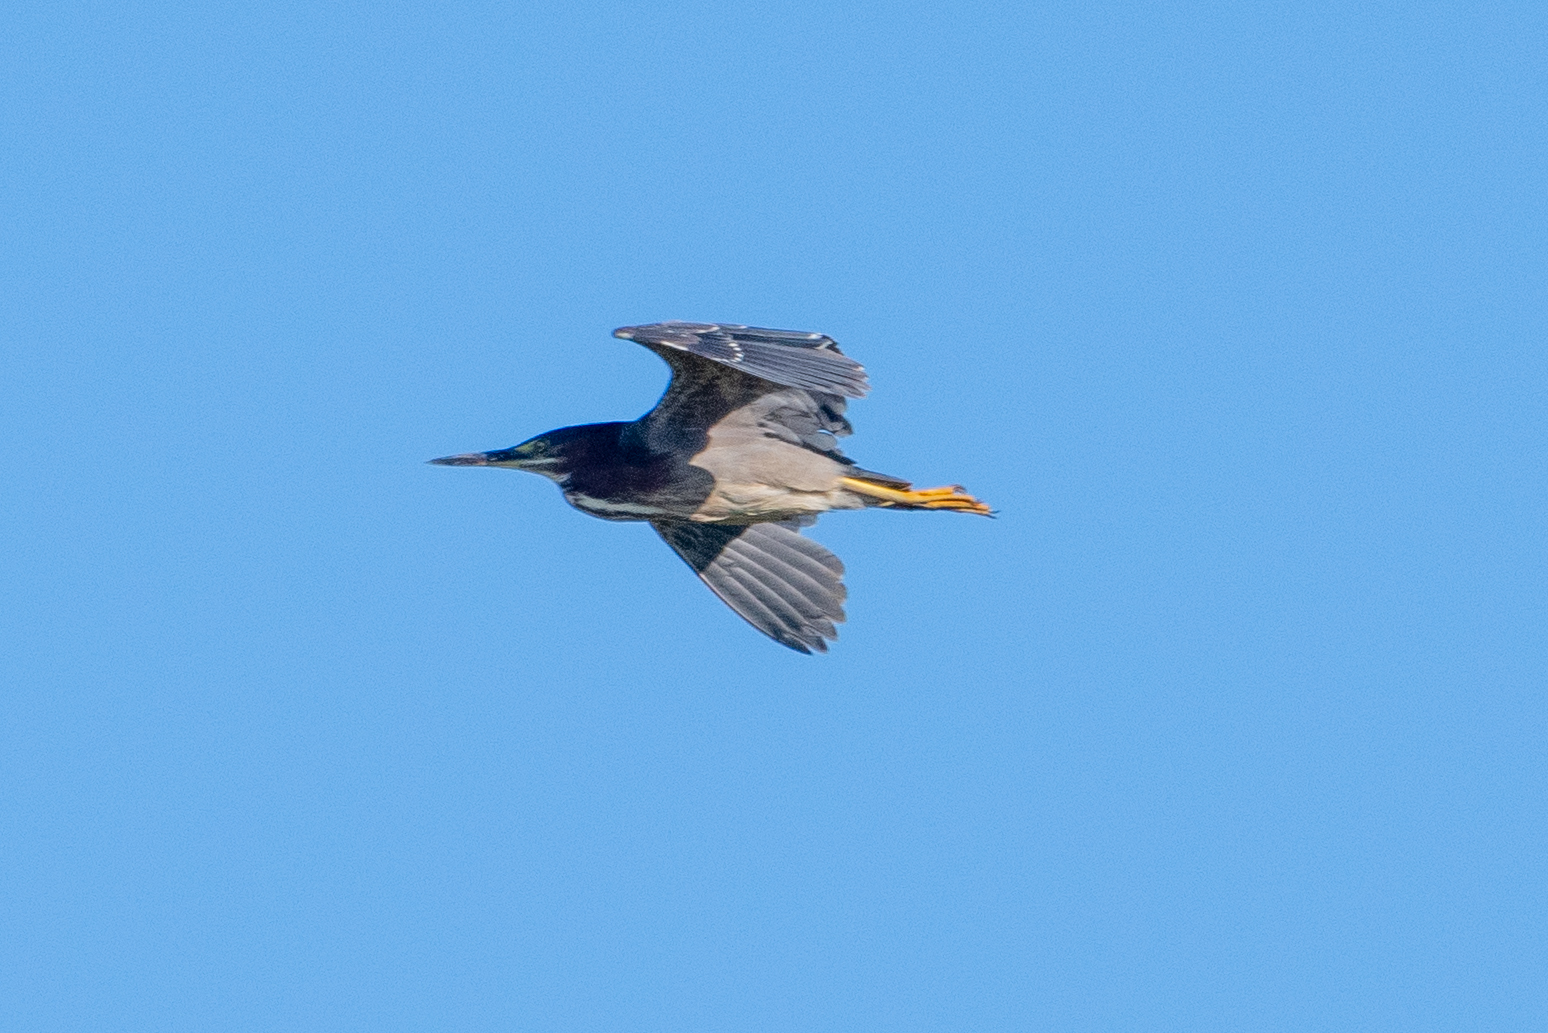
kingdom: Animalia
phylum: Chordata
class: Aves
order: Pelecaniformes
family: Ardeidae
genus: Butorides
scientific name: Butorides virescens
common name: Green heron
